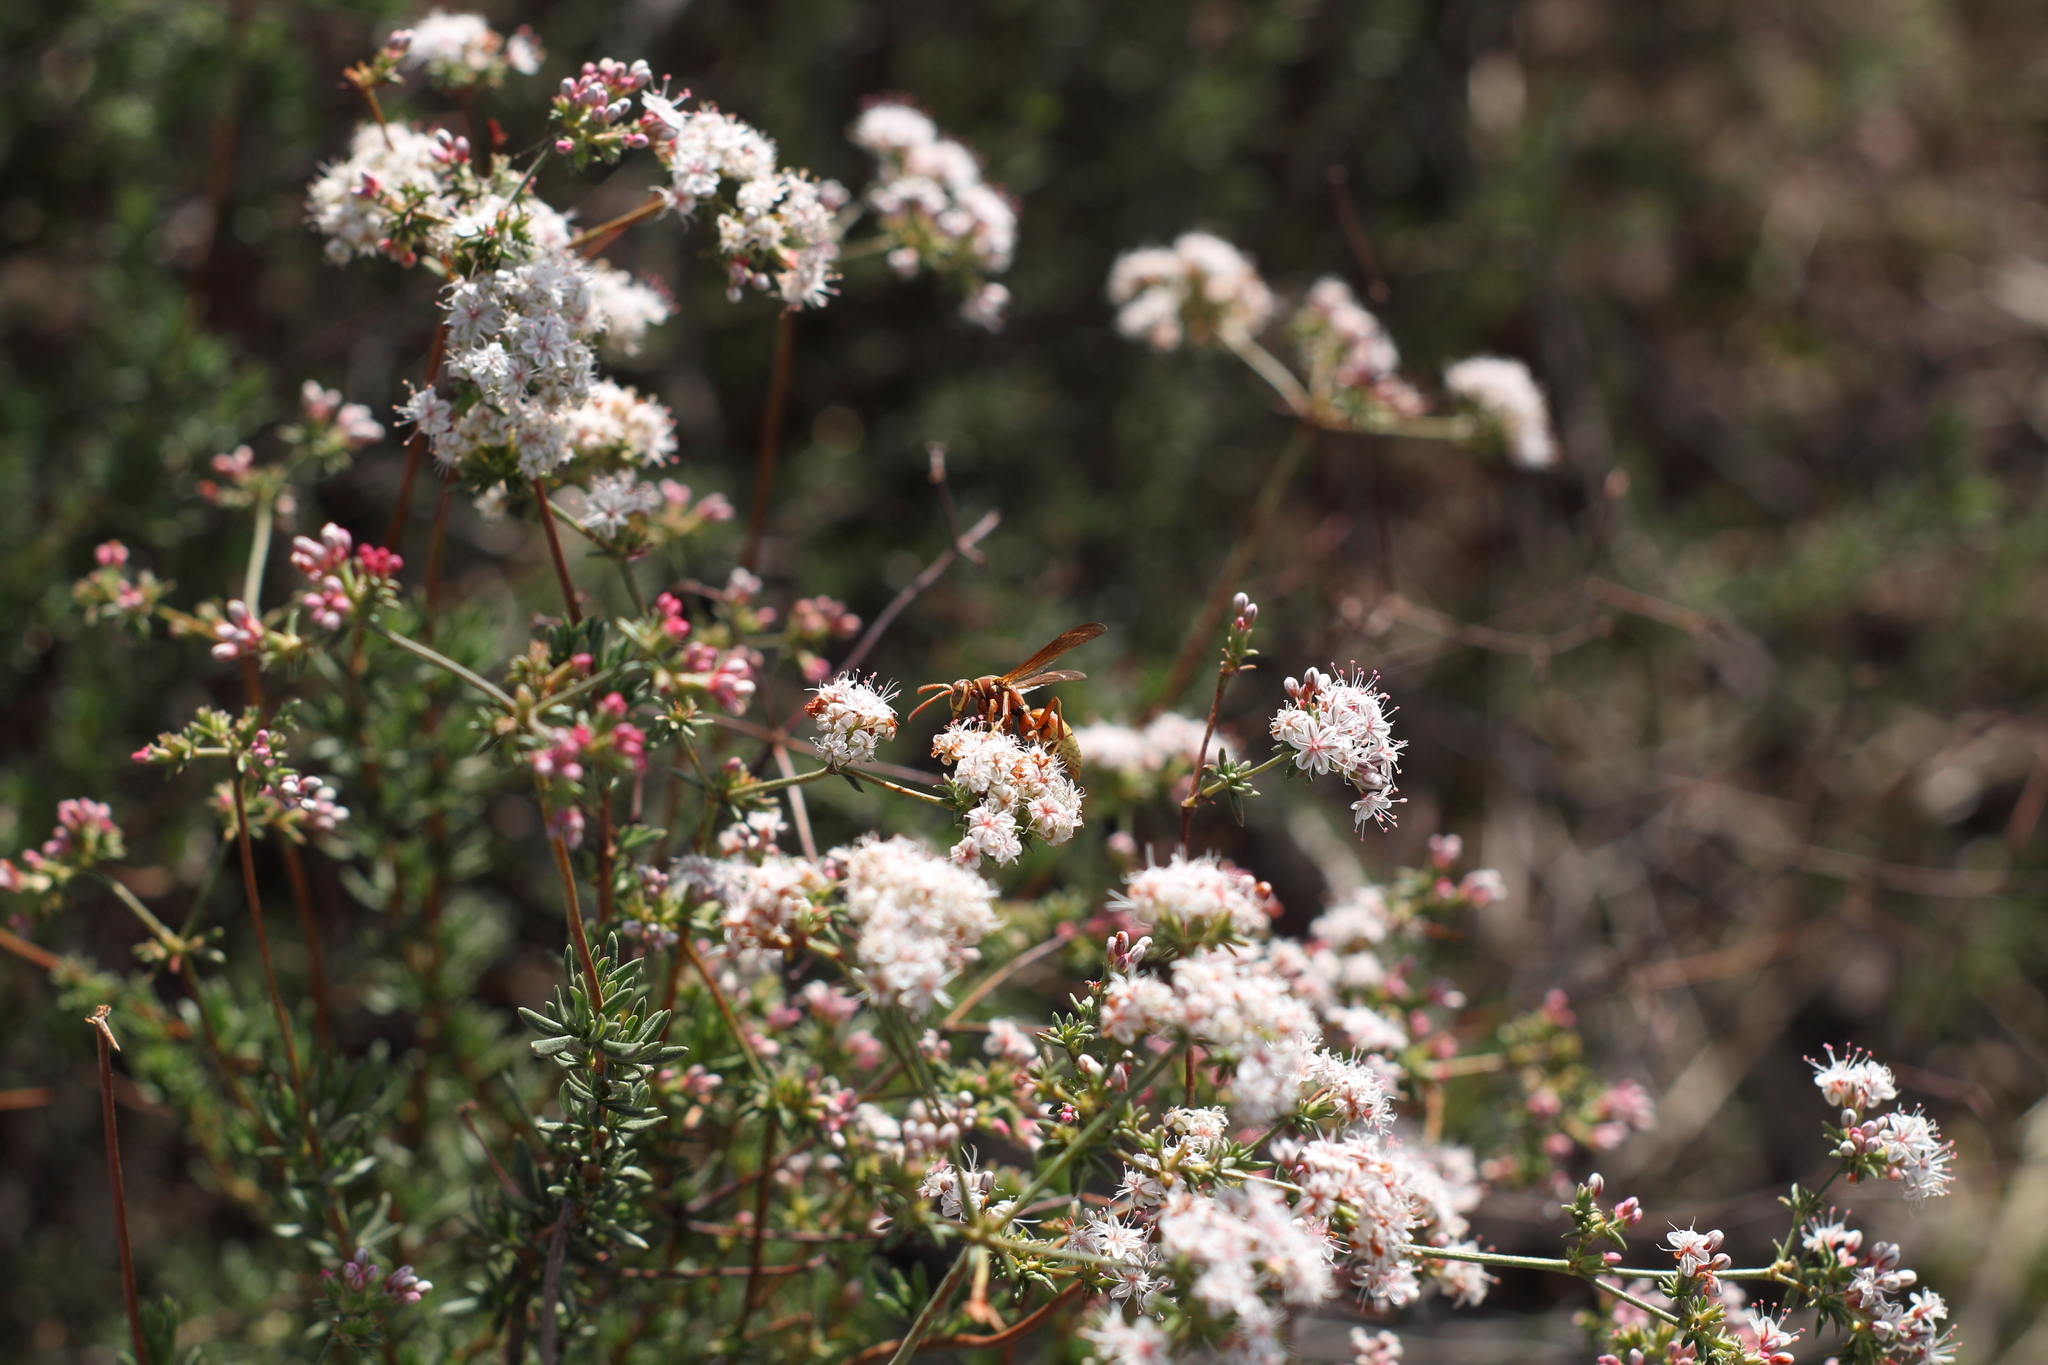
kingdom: Plantae
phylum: Tracheophyta
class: Magnoliopsida
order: Caryophyllales
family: Polygonaceae
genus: Eriogonum
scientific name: Eriogonum fasciculatum
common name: California wild buckwheat
